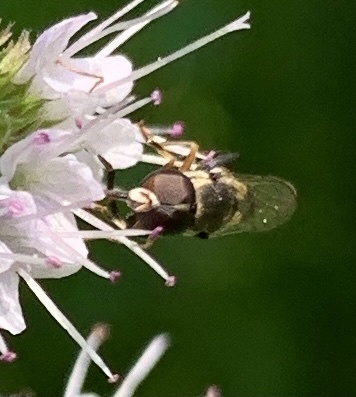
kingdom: Animalia
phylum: Arthropoda
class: Insecta
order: Diptera
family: Syrphidae
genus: Syritta
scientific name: Syritta pipiens
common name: Hover fly
